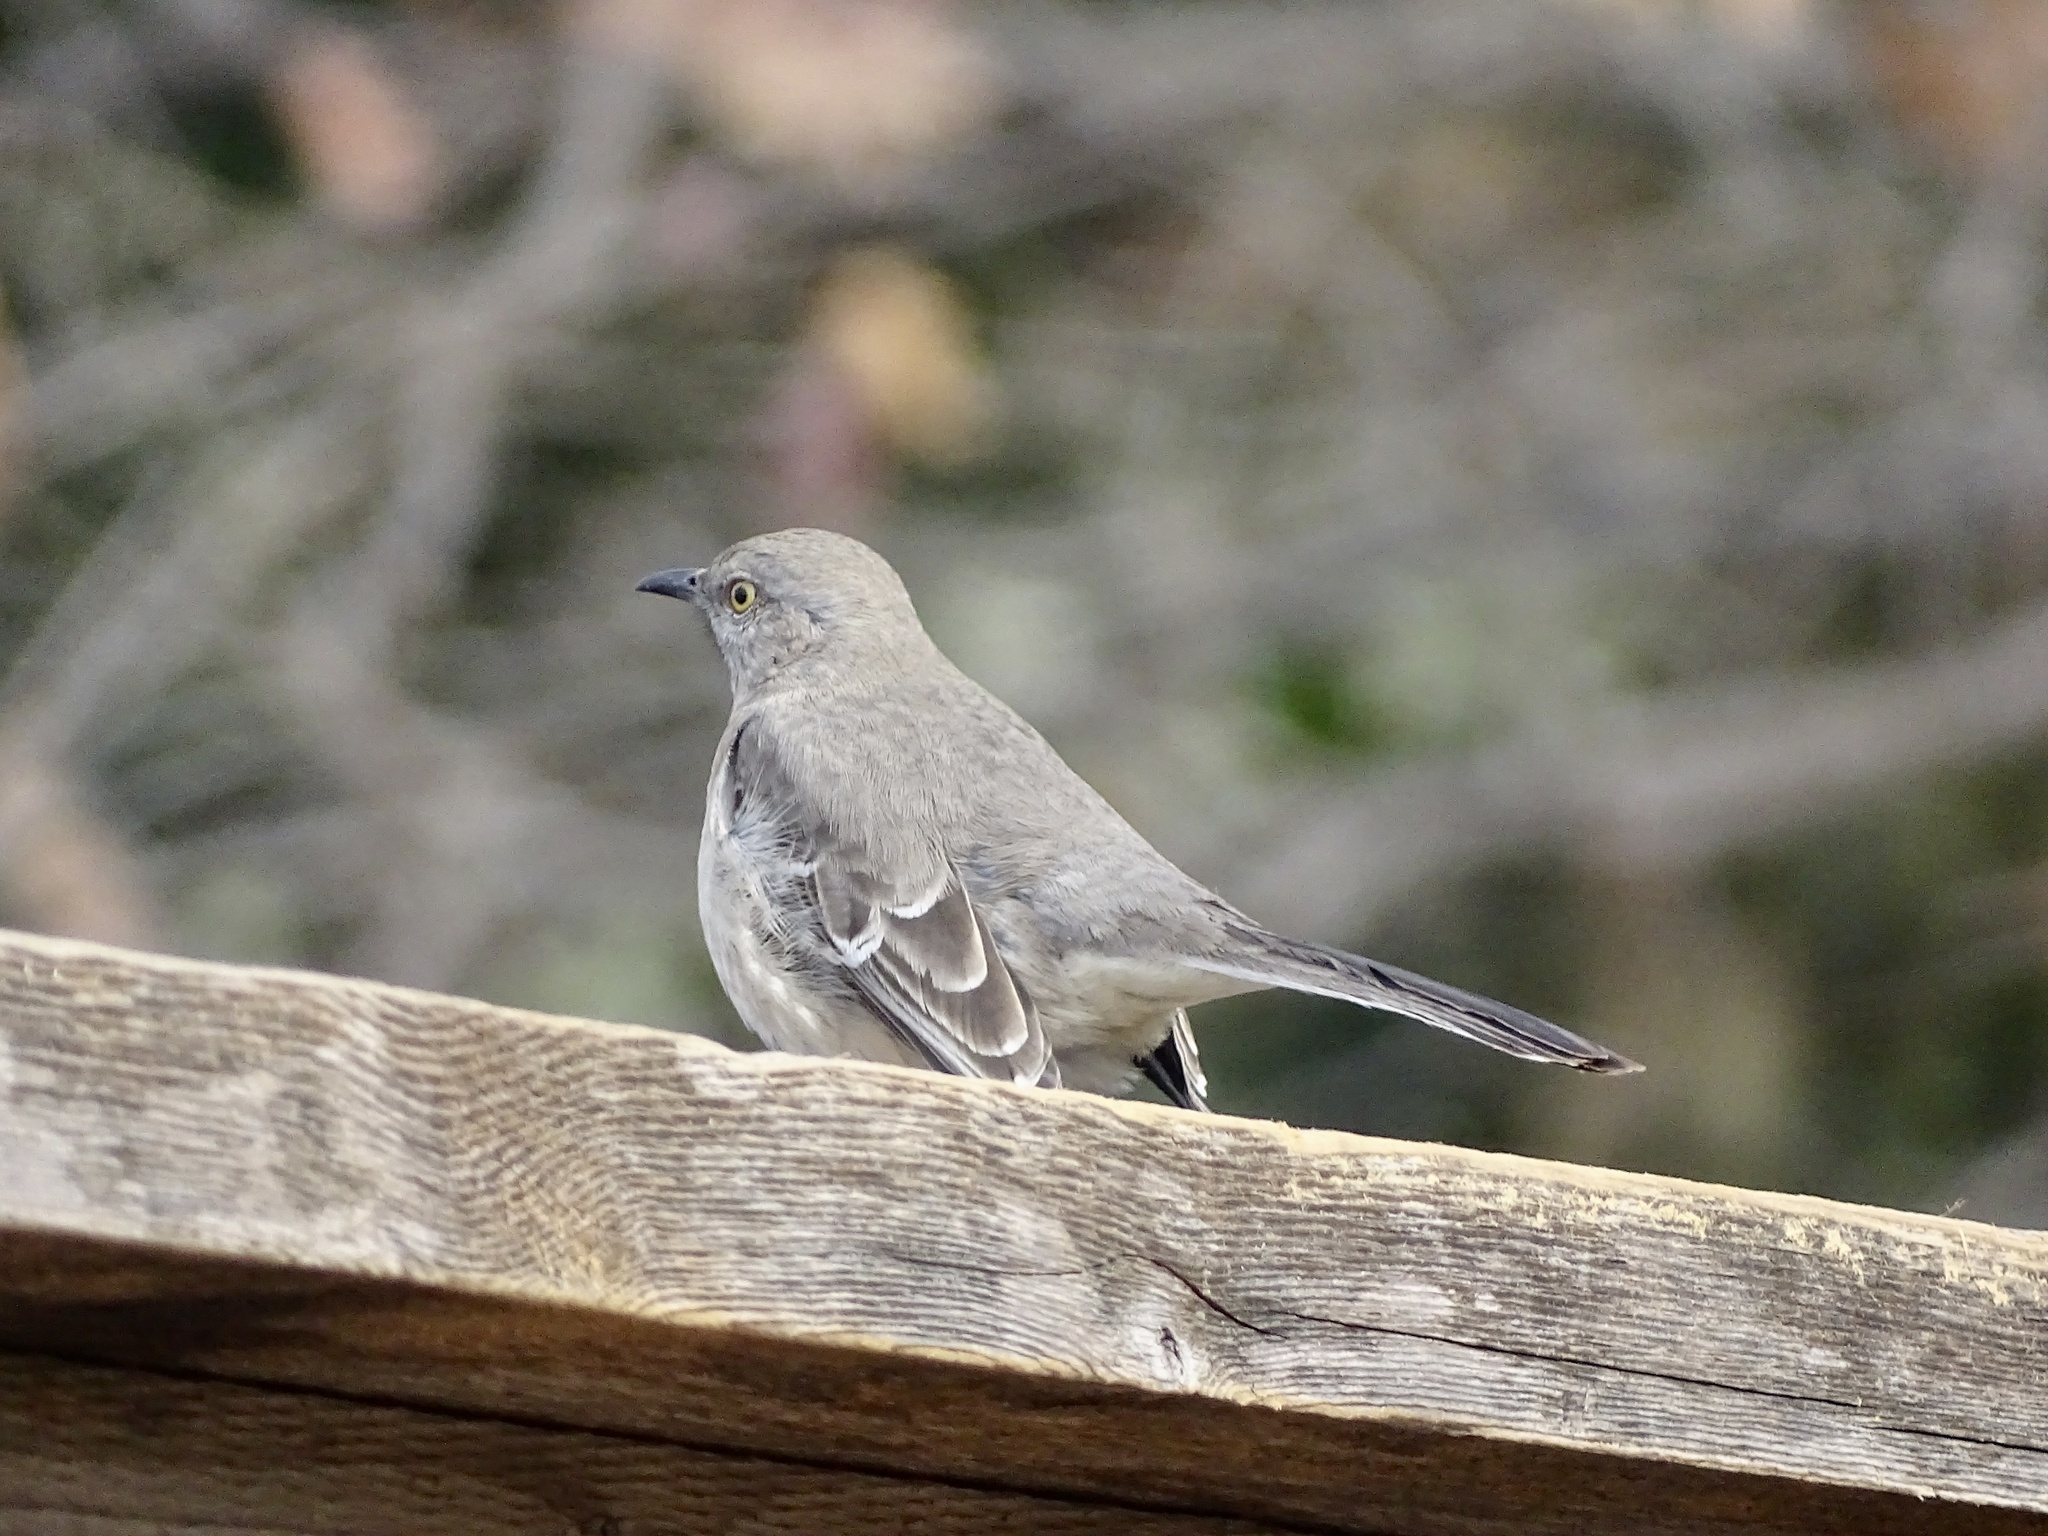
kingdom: Animalia
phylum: Chordata
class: Aves
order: Passeriformes
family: Mimidae
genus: Mimus
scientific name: Mimus polyglottos
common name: Northern mockingbird
